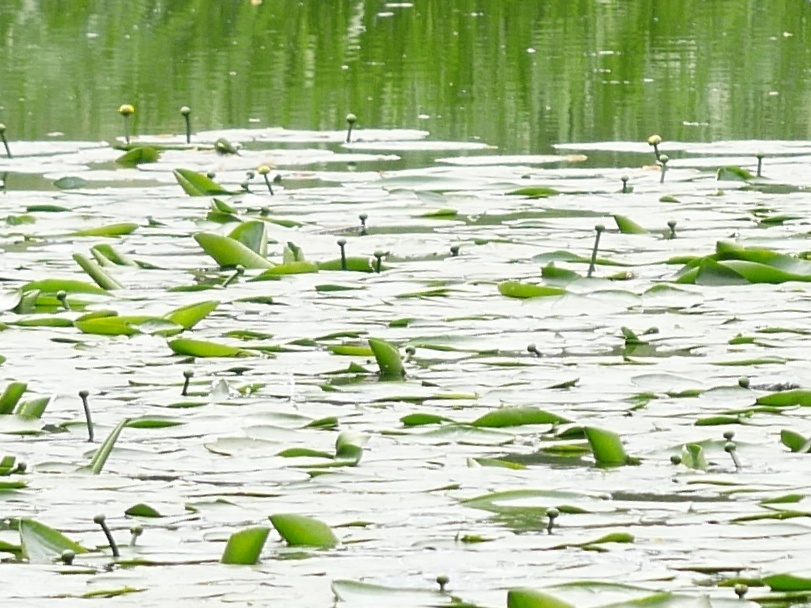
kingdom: Plantae
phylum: Tracheophyta
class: Magnoliopsida
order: Nymphaeales
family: Nymphaeaceae
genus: Nuphar
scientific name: Nuphar lutea
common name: Yellow water-lily
